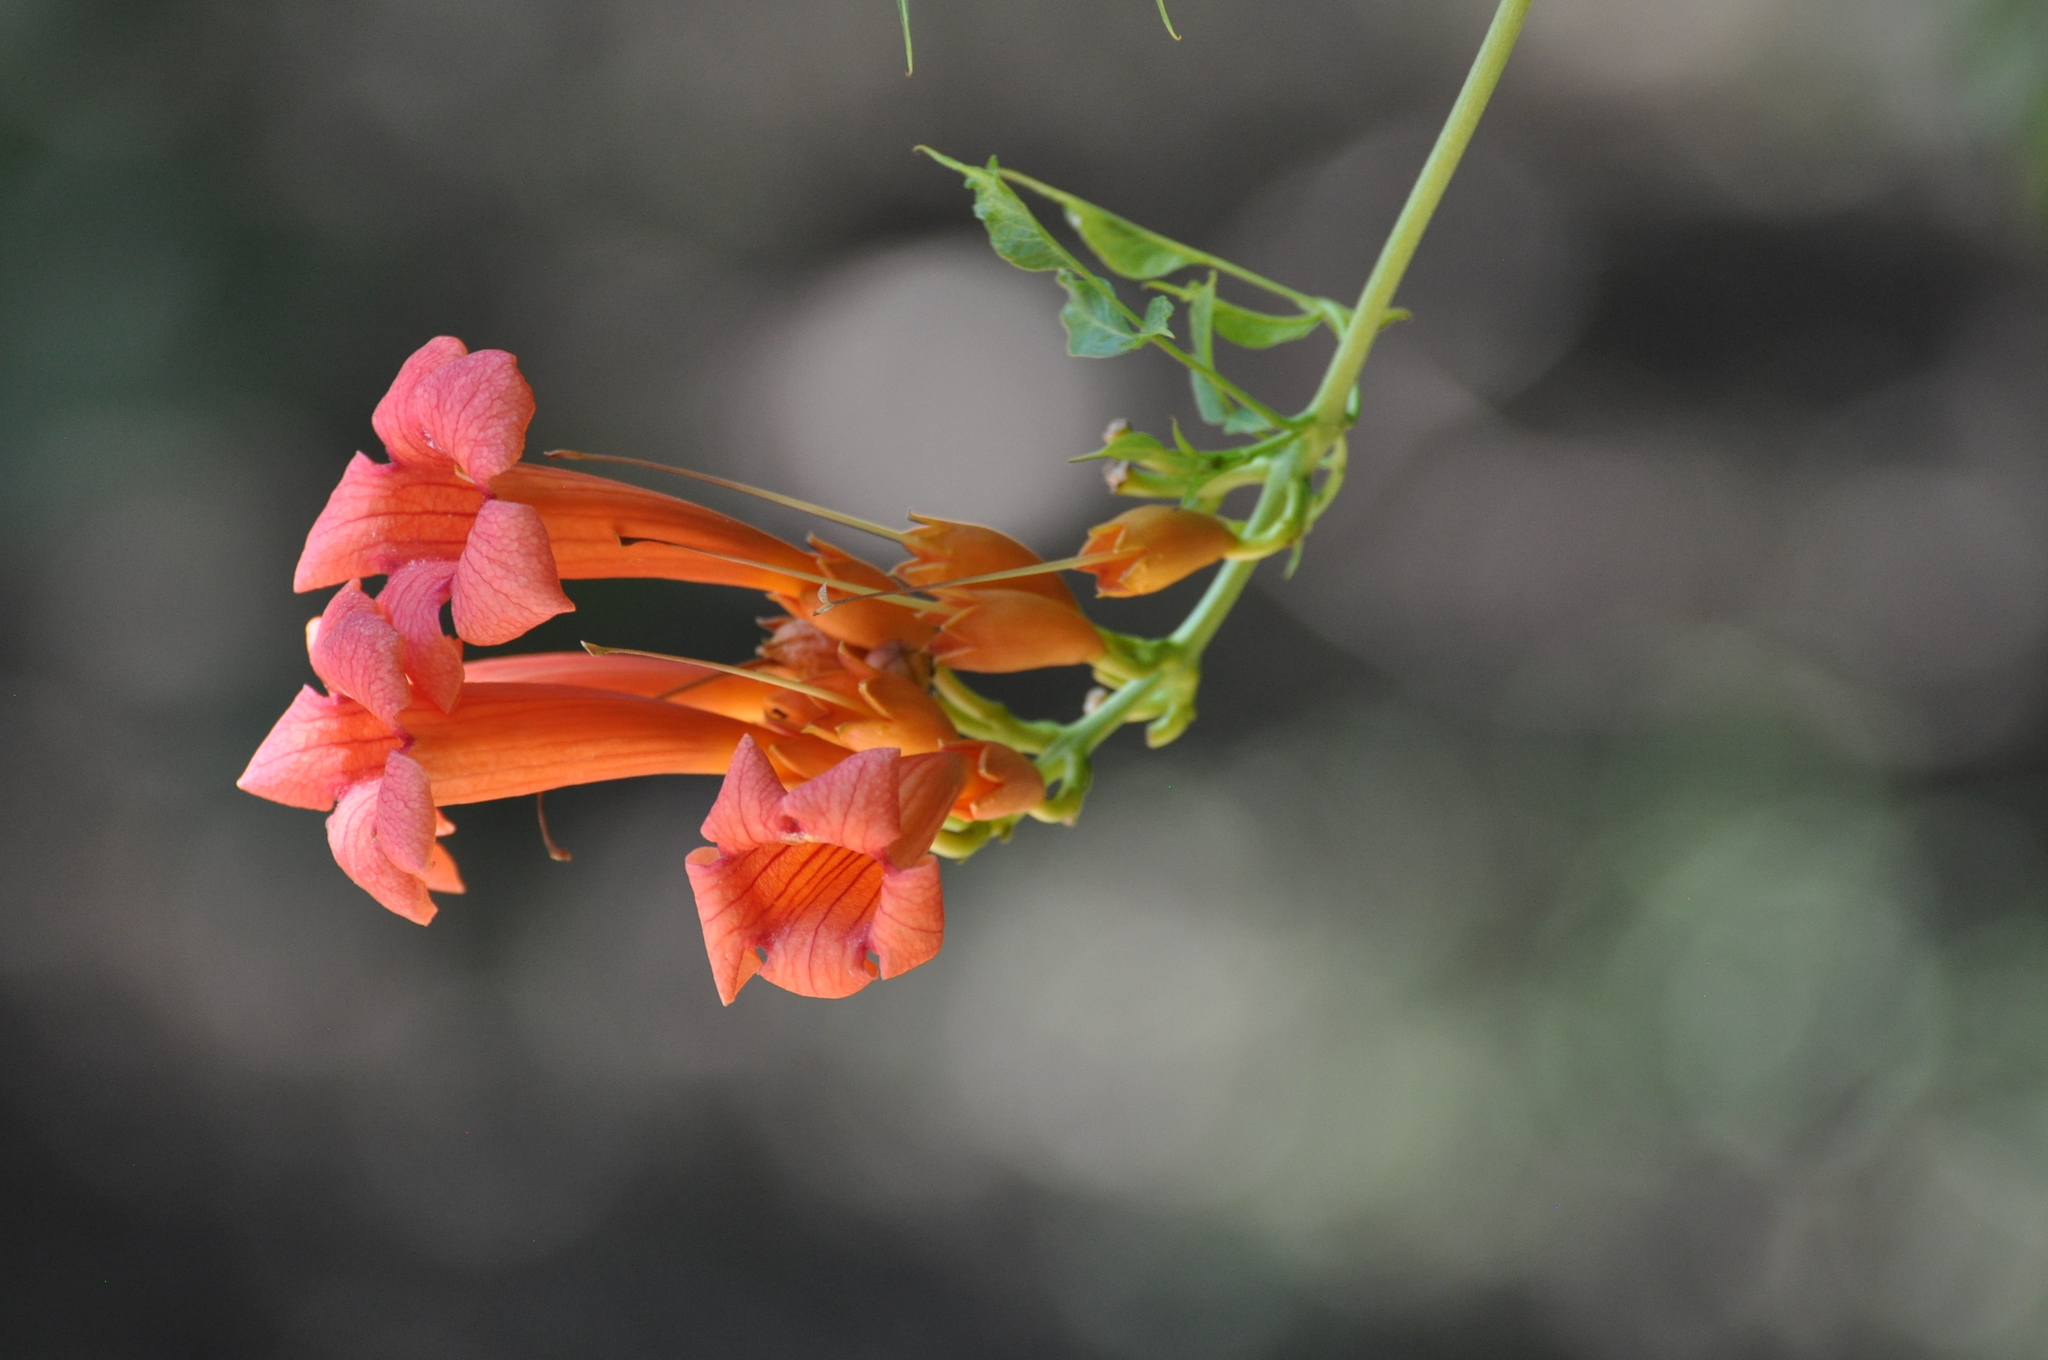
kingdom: Plantae
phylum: Tracheophyta
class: Magnoliopsida
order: Lamiales
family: Bignoniaceae
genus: Campsis
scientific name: Campsis radicans
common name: Trumpet-creeper
